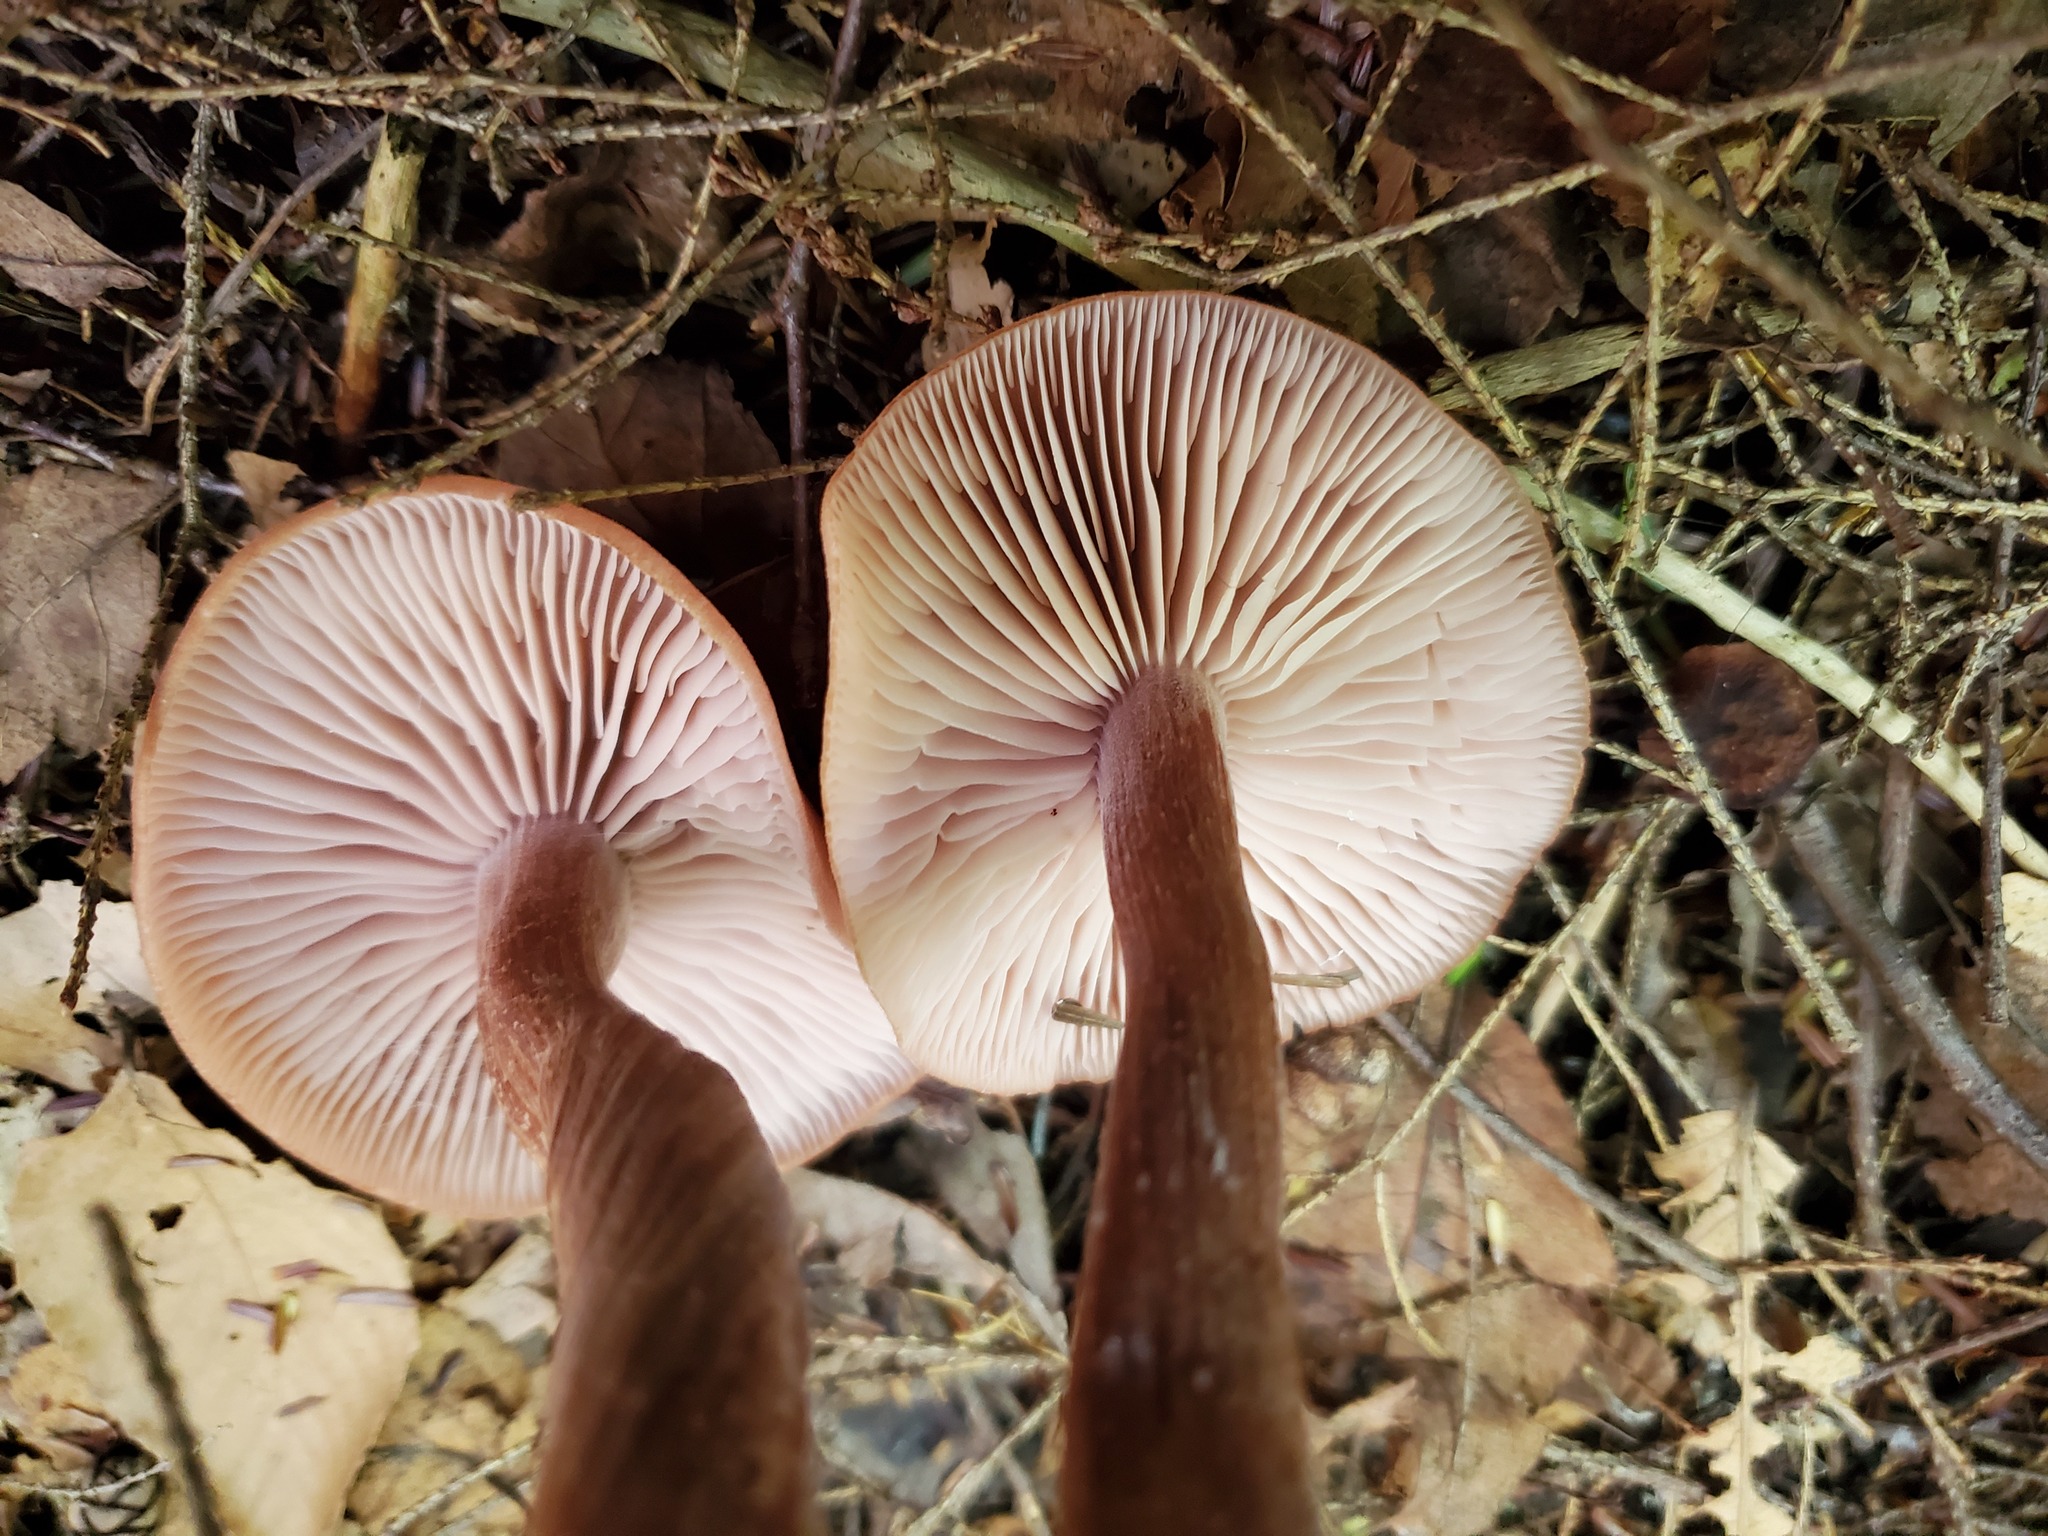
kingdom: Fungi
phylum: Basidiomycota
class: Agaricomycetes
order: Agaricales
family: Hydnangiaceae
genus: Laccaria
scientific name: Laccaria laccata
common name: Deceiver
